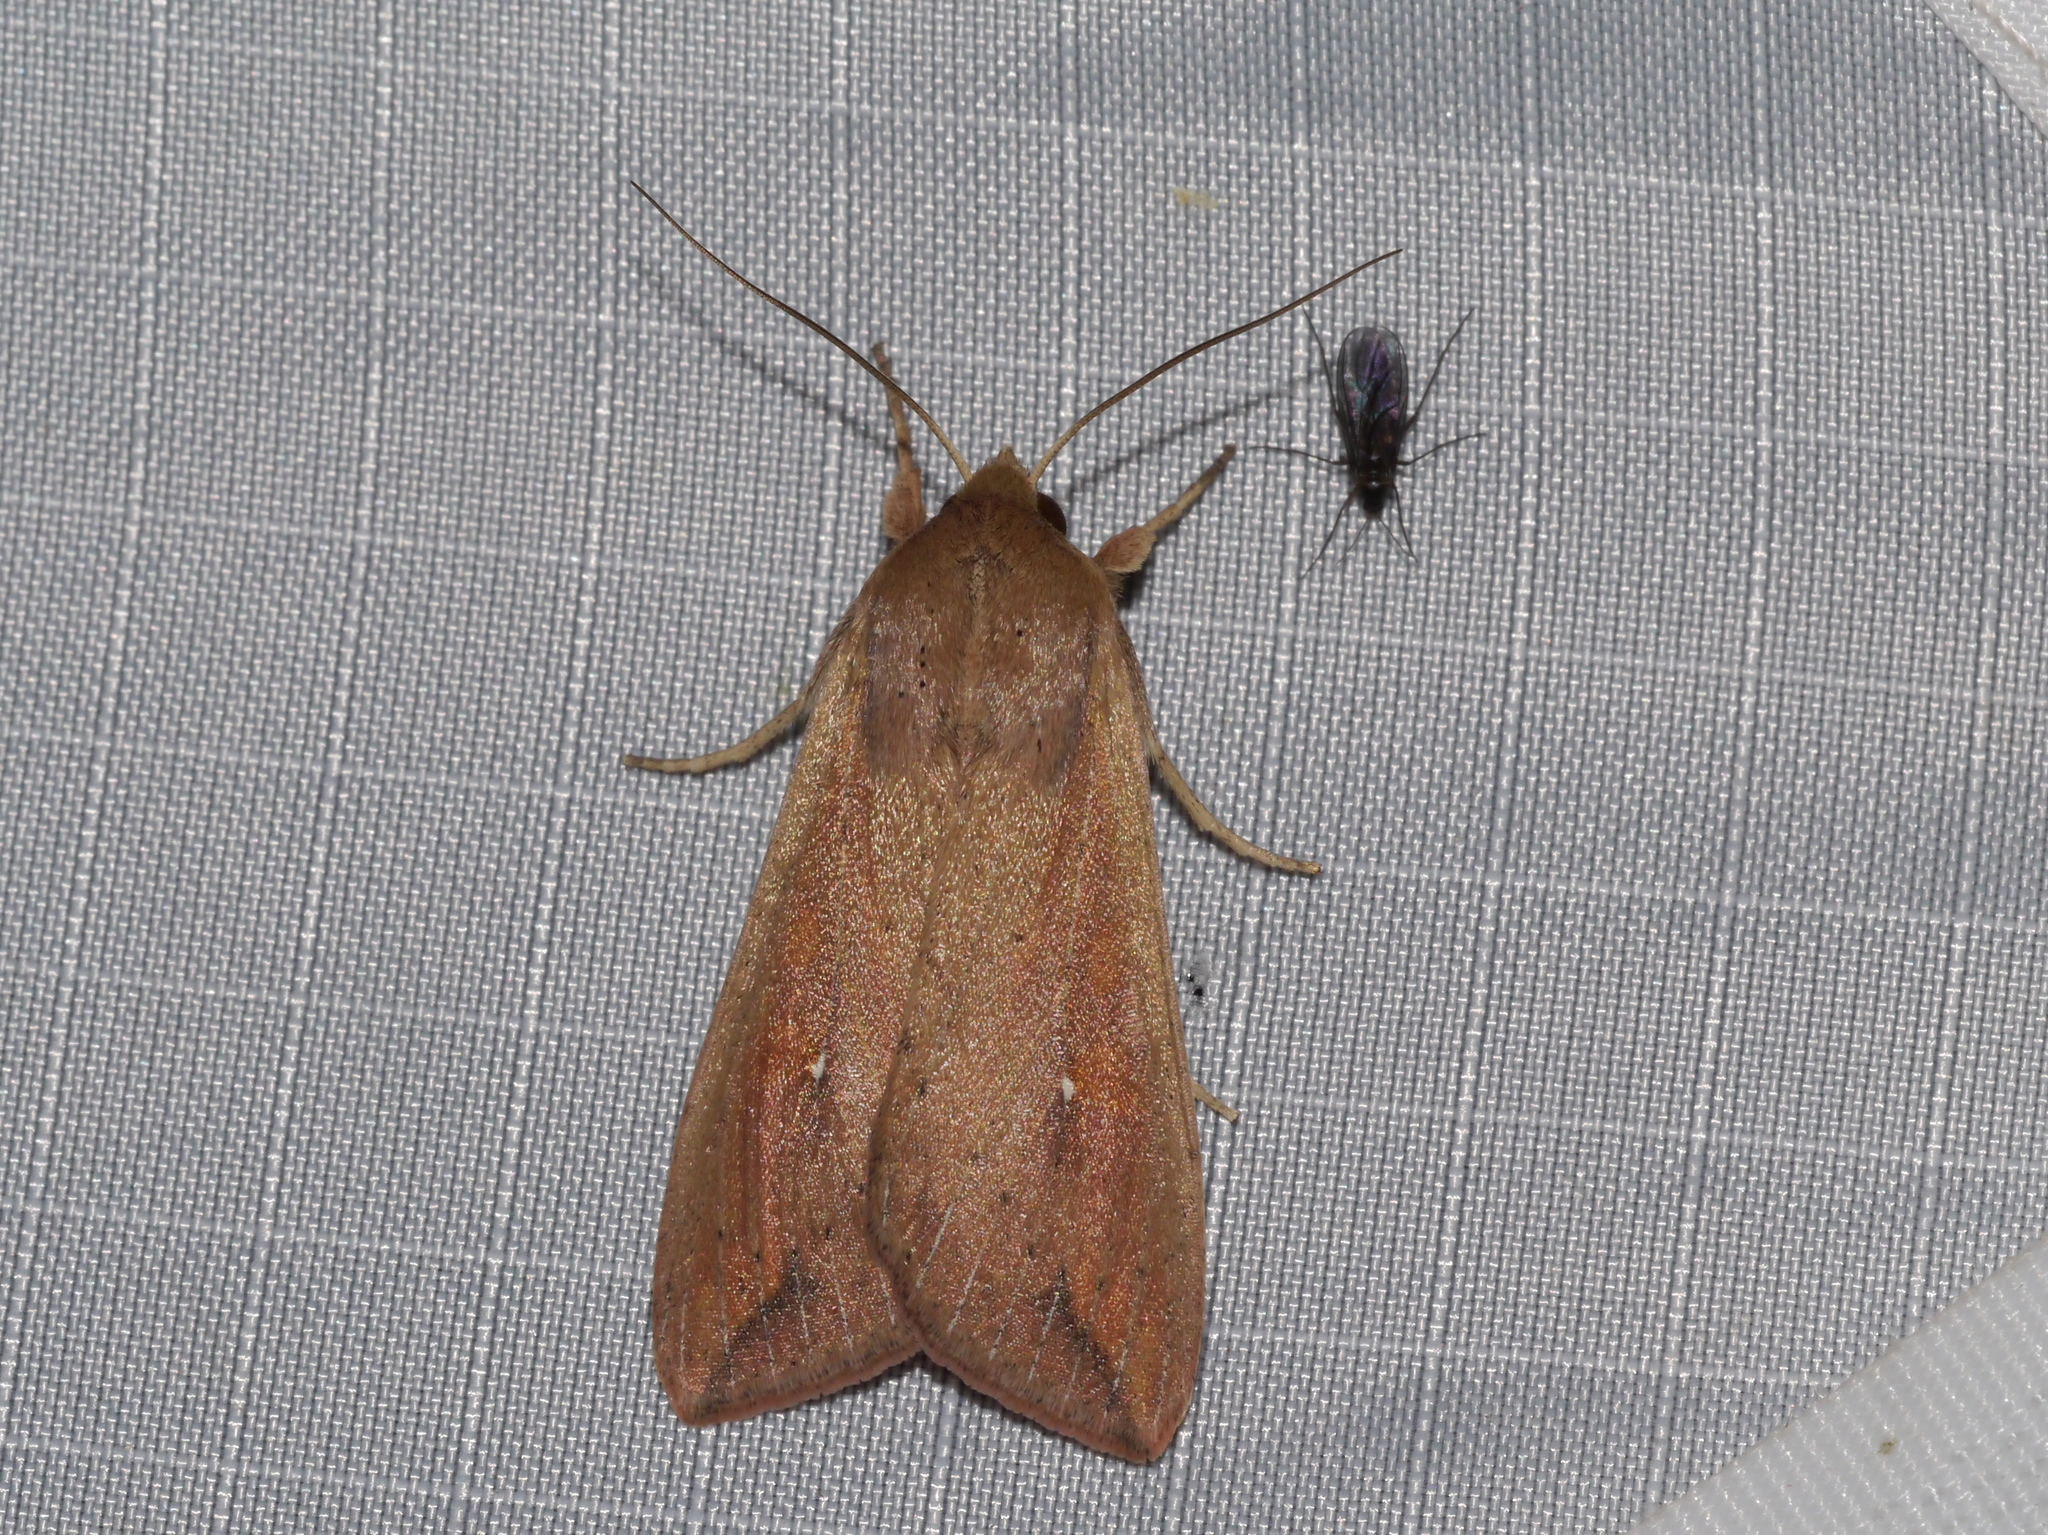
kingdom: Animalia
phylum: Arthropoda
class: Insecta
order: Lepidoptera
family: Noctuidae
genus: Mythimna
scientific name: Mythimna unipuncta
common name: White-speck
